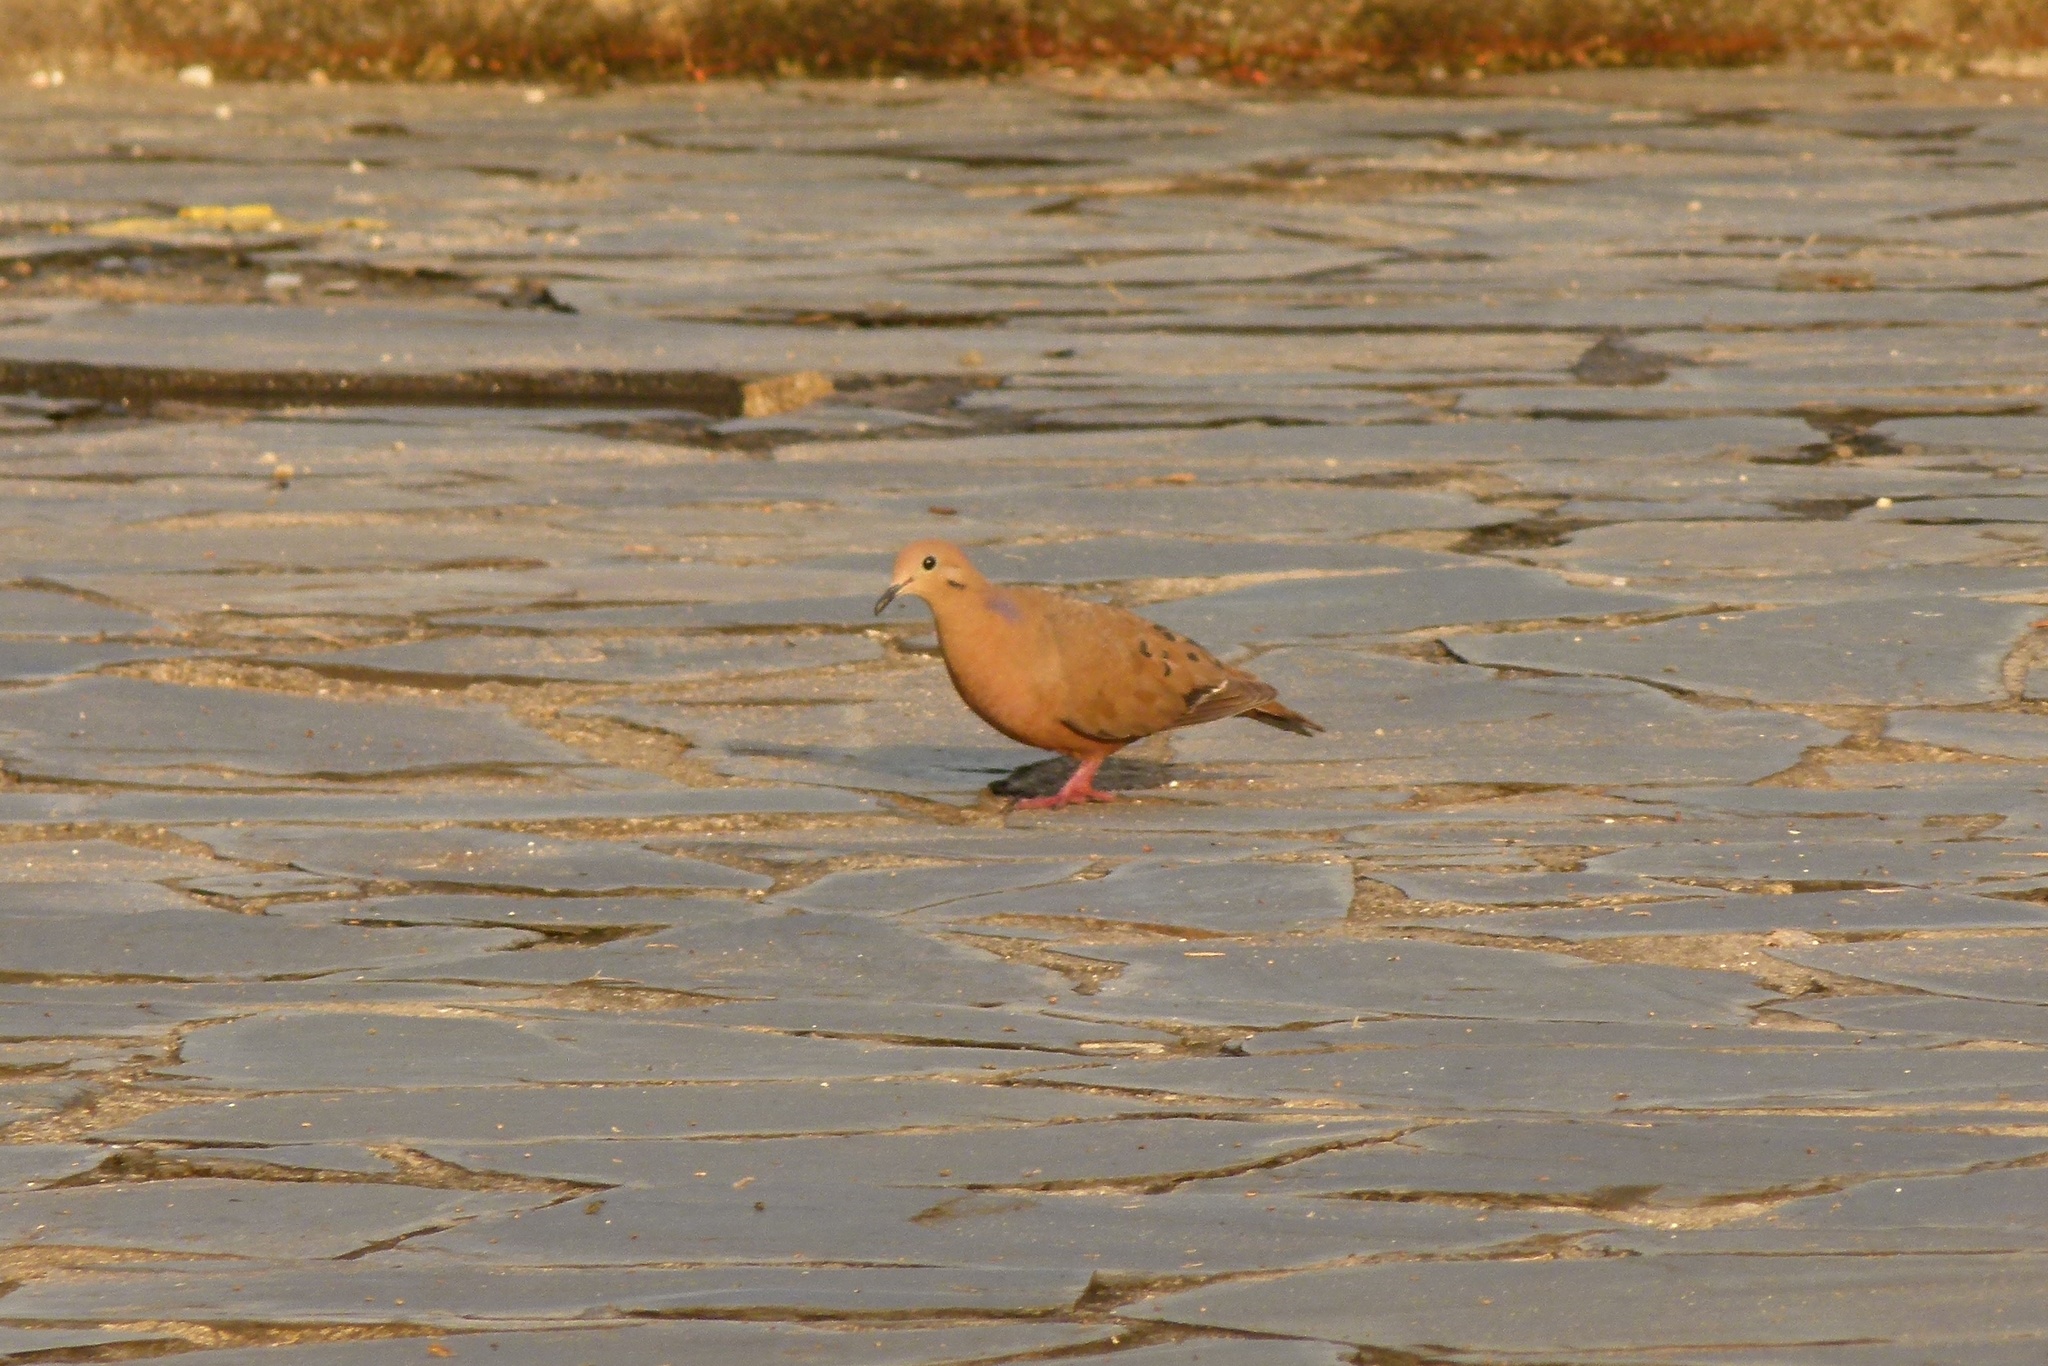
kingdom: Animalia
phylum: Chordata
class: Aves
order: Columbiformes
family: Columbidae
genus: Zenaida
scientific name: Zenaida aurita
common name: Zenaida dove
